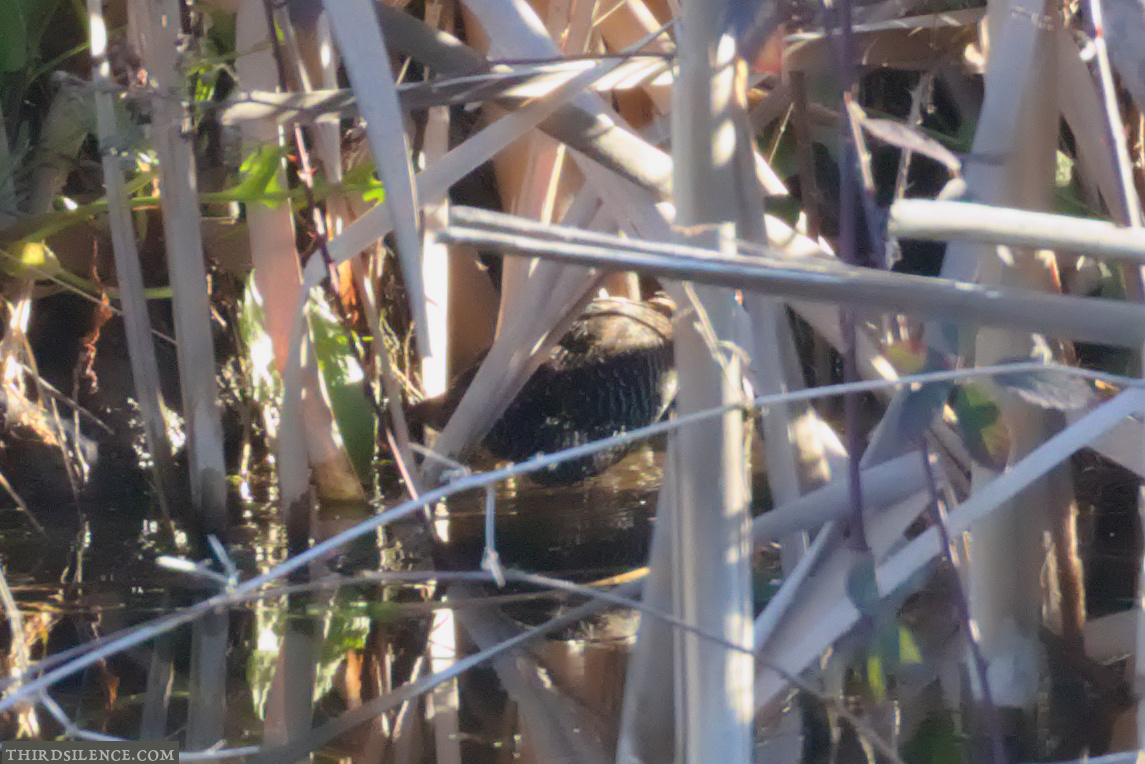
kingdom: Animalia
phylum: Chordata
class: Aves
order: Gruiformes
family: Rallidae
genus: Lewinia
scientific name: Lewinia pectoralis
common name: Lewin's rail
